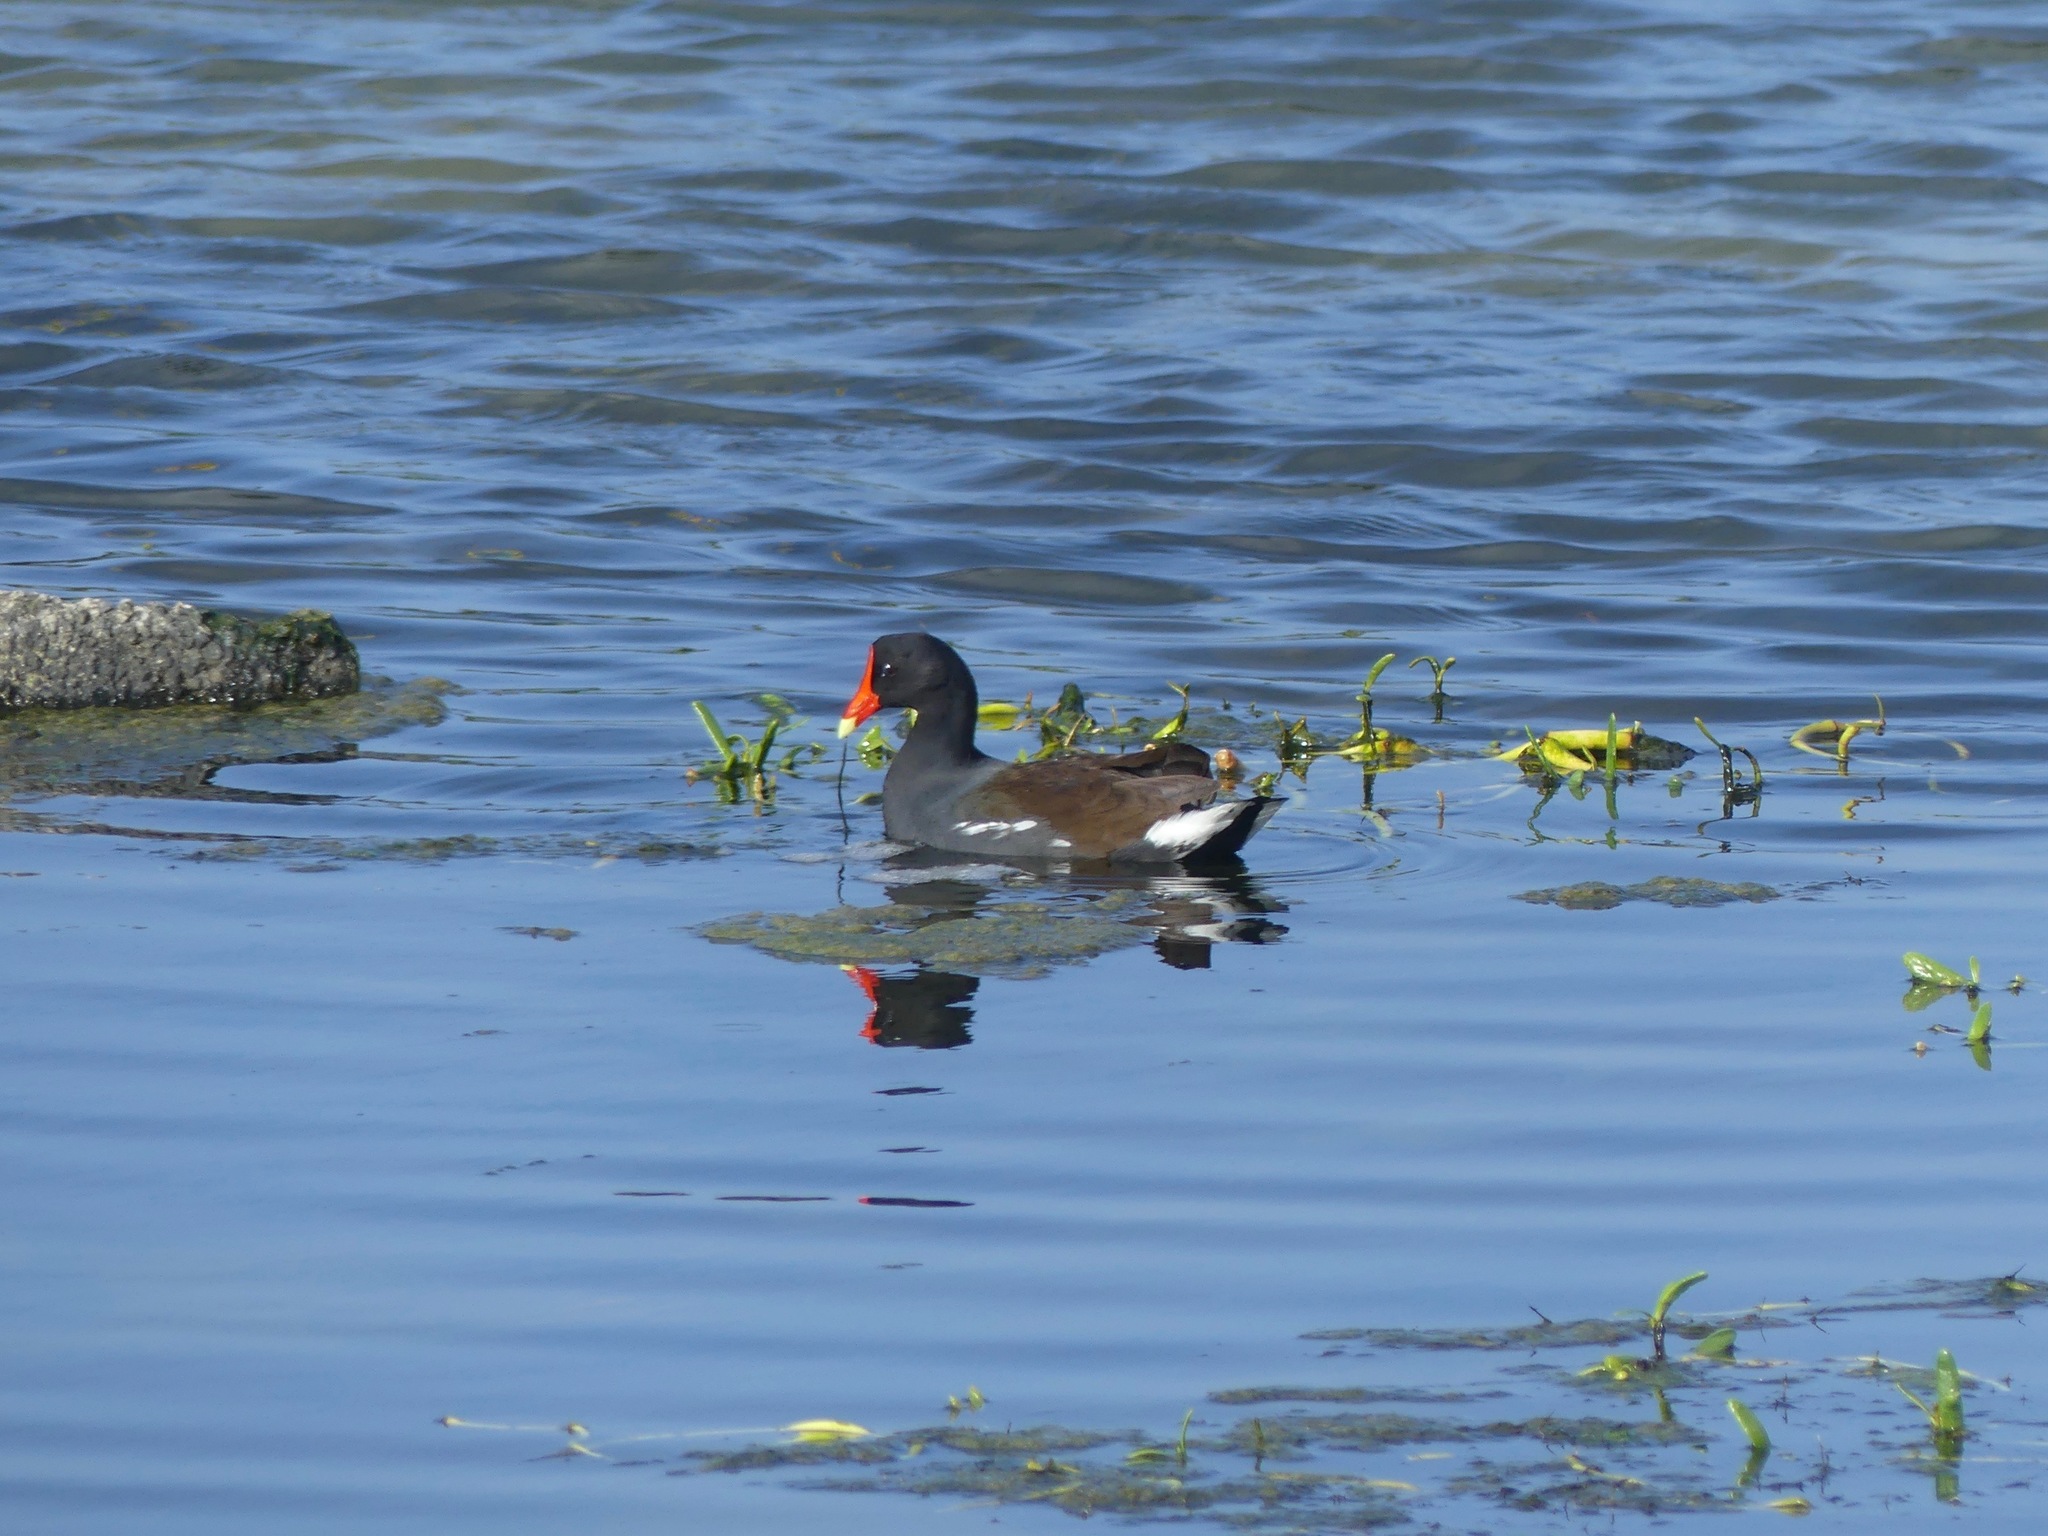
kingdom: Animalia
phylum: Chordata
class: Aves
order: Gruiformes
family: Rallidae
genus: Gallinula
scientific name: Gallinula chloropus
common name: Common moorhen
